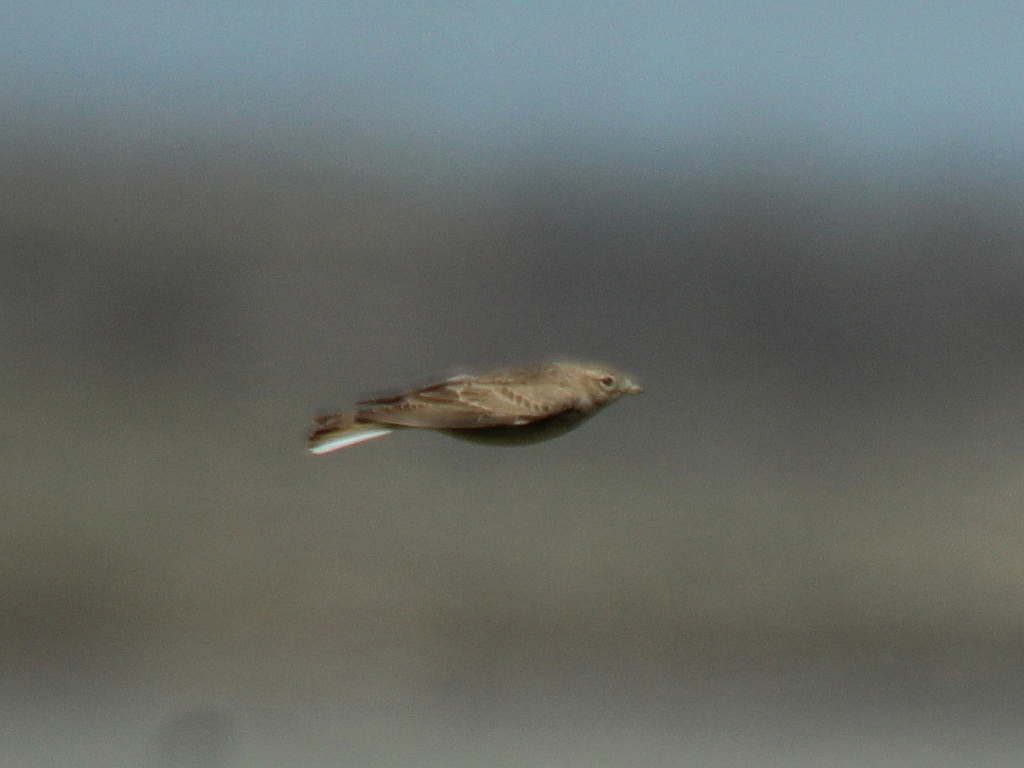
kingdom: Animalia
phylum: Chordata
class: Aves
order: Passeriformes
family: Alaudidae
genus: Calandrella
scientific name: Calandrella brachydactyla
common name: Greater short-toed lark
